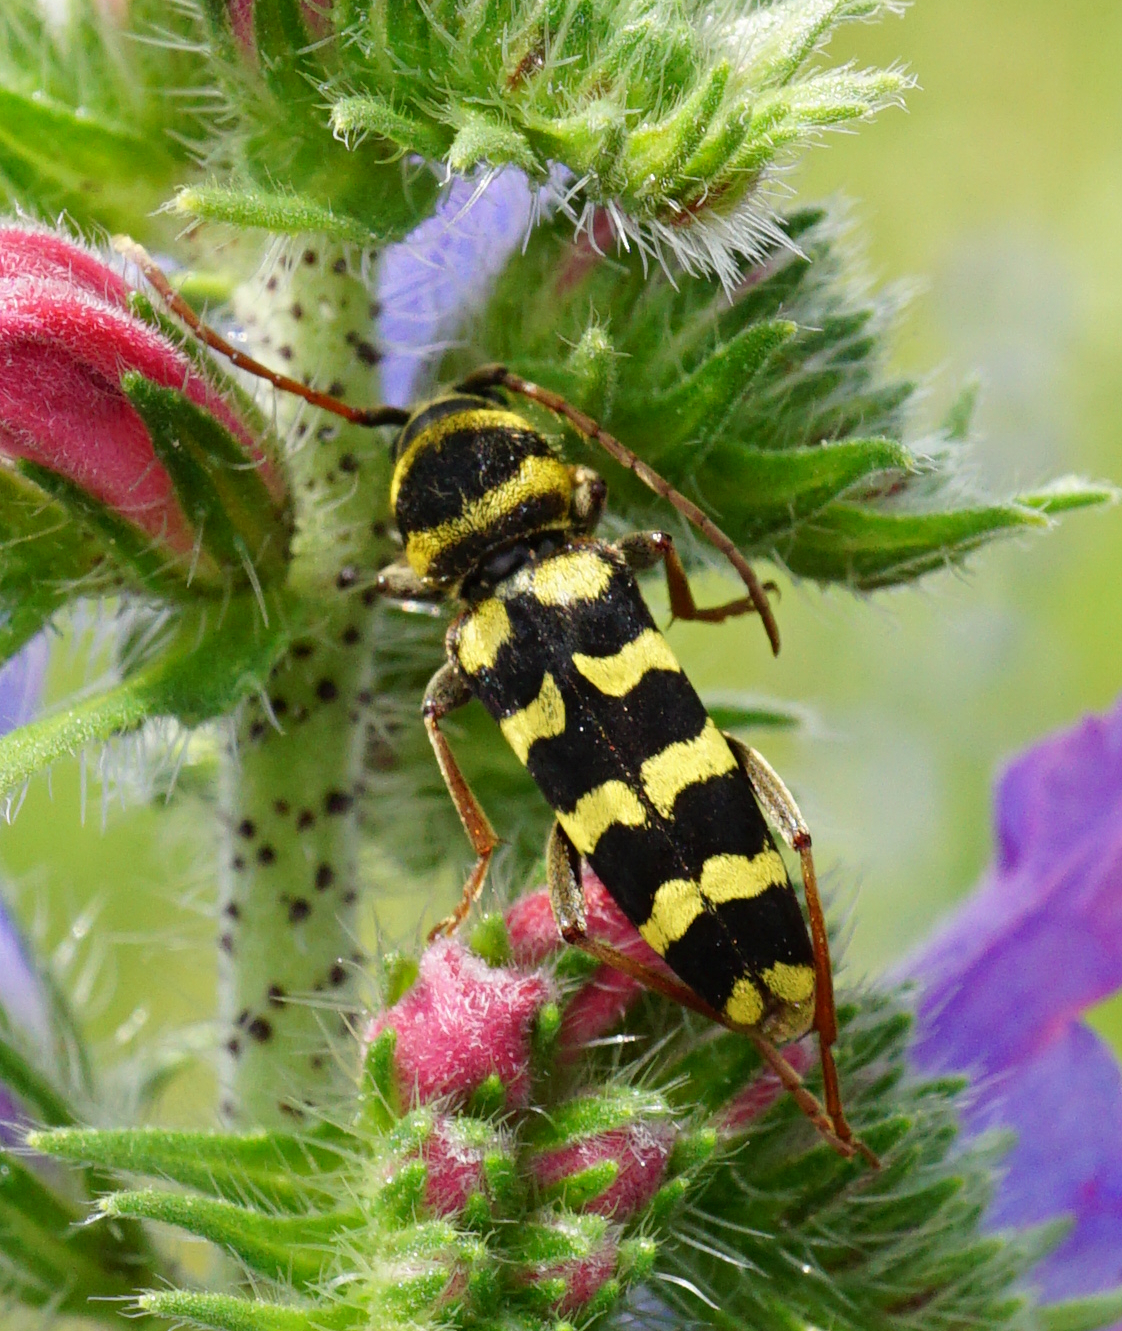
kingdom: Animalia
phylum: Arthropoda
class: Insecta
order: Coleoptera
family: Cerambycidae
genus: Plagionotus
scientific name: Plagionotus floralis
